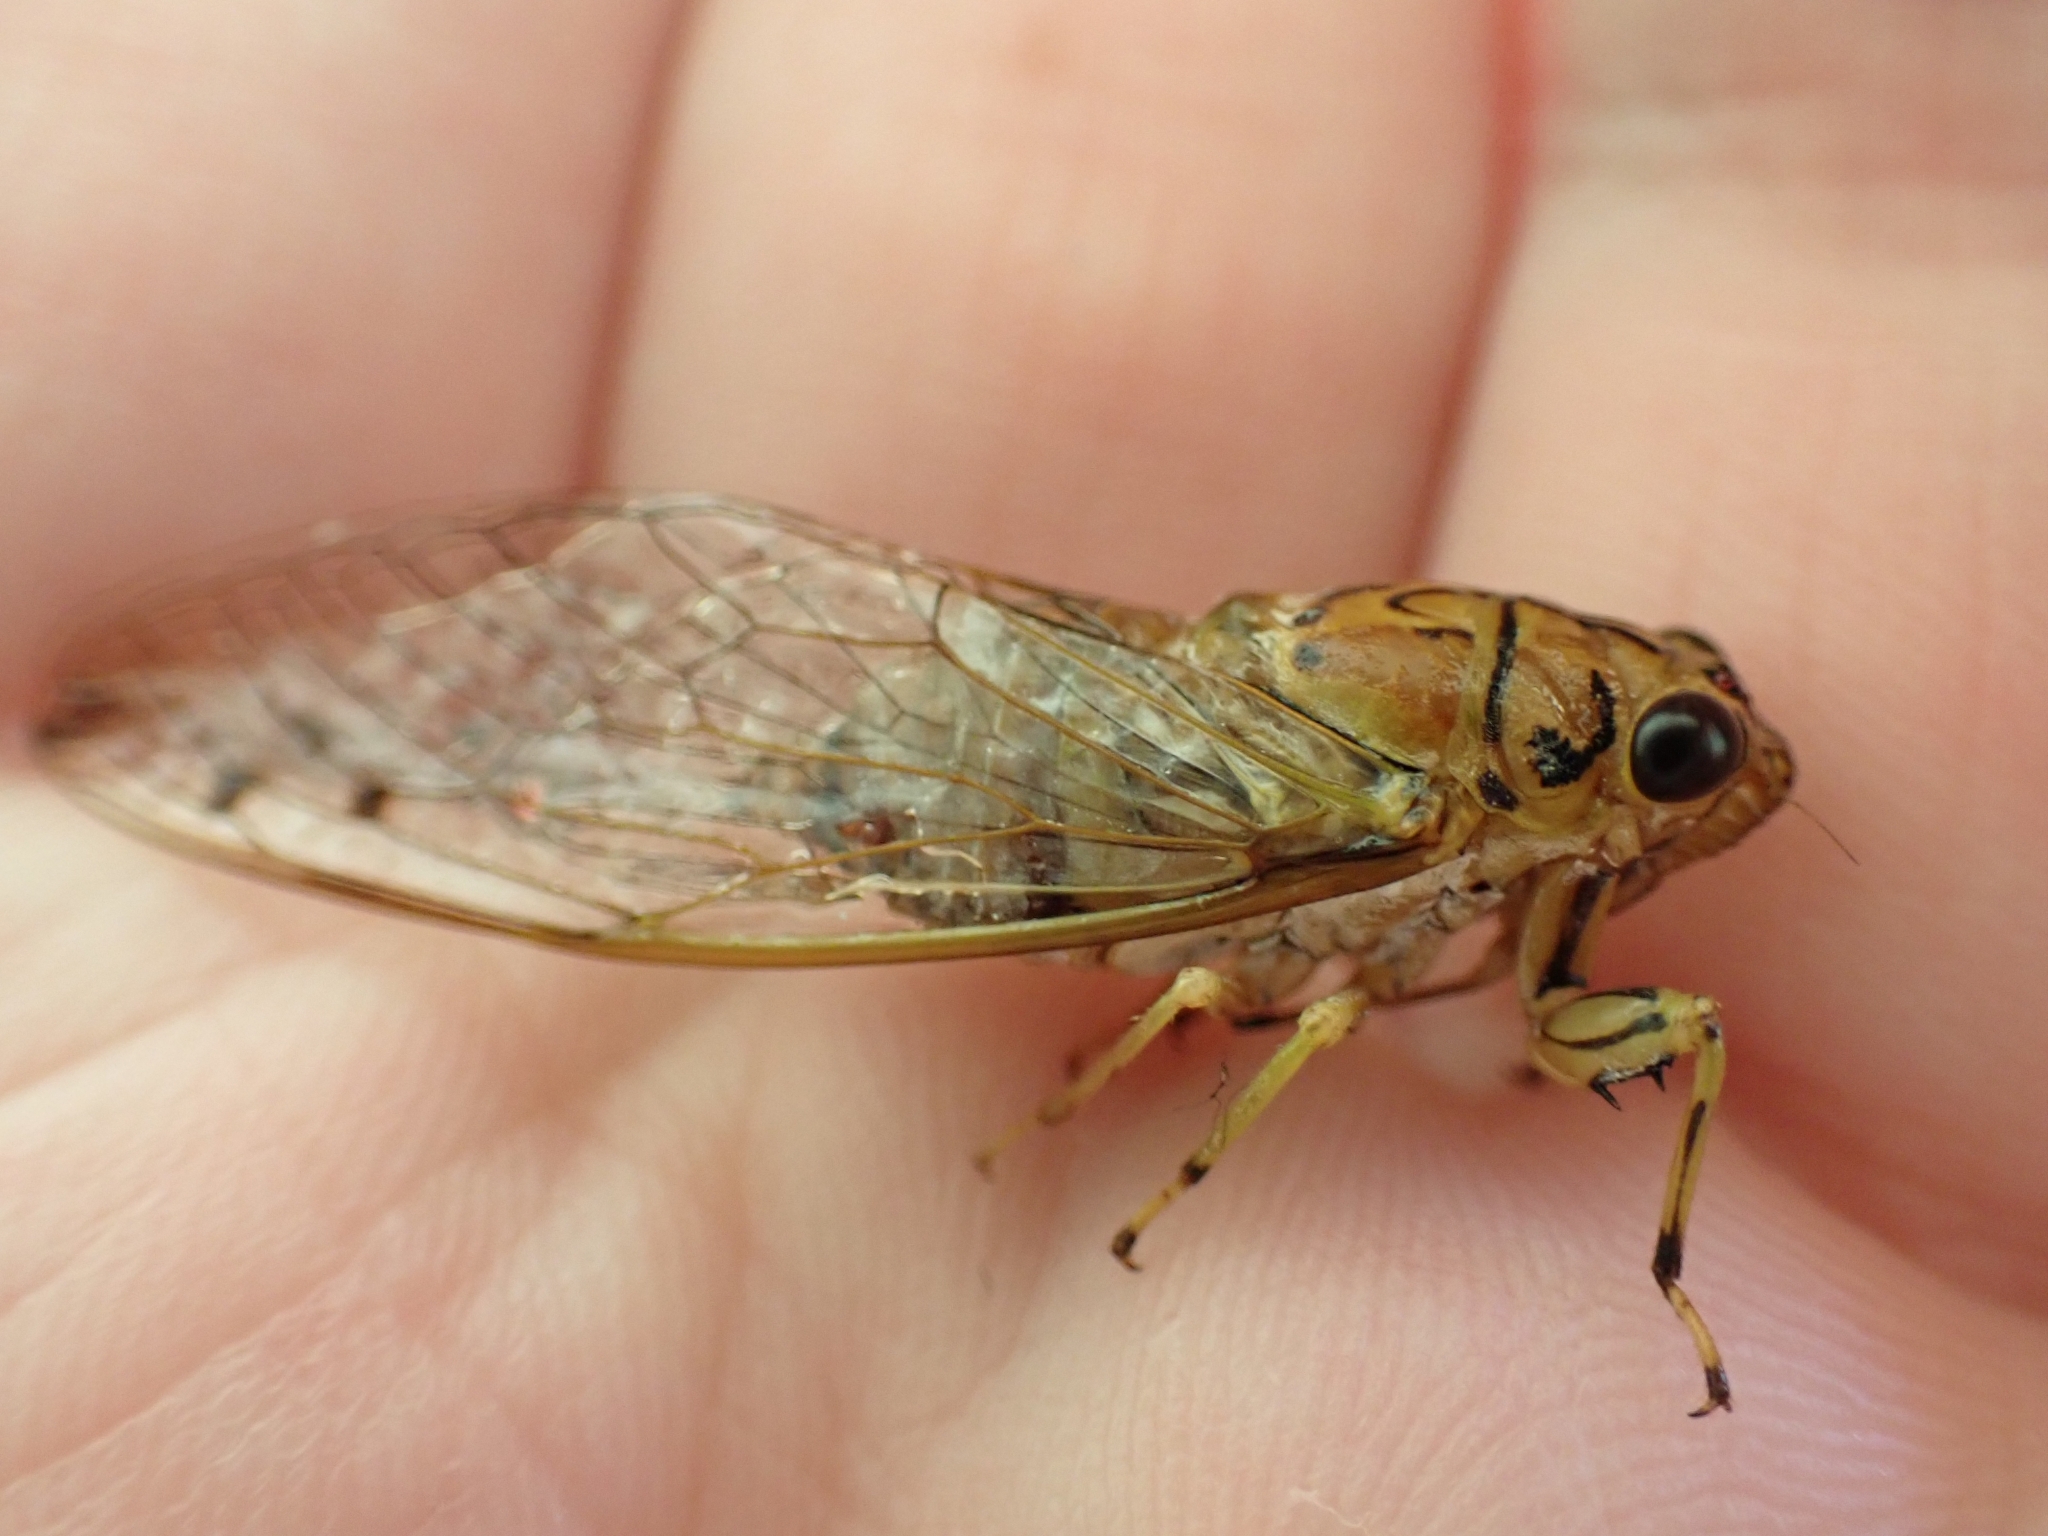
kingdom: Animalia
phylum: Arthropoda
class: Insecta
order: Hemiptera
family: Cicadidae
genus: Tamasa
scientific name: Tamasa tristigma
